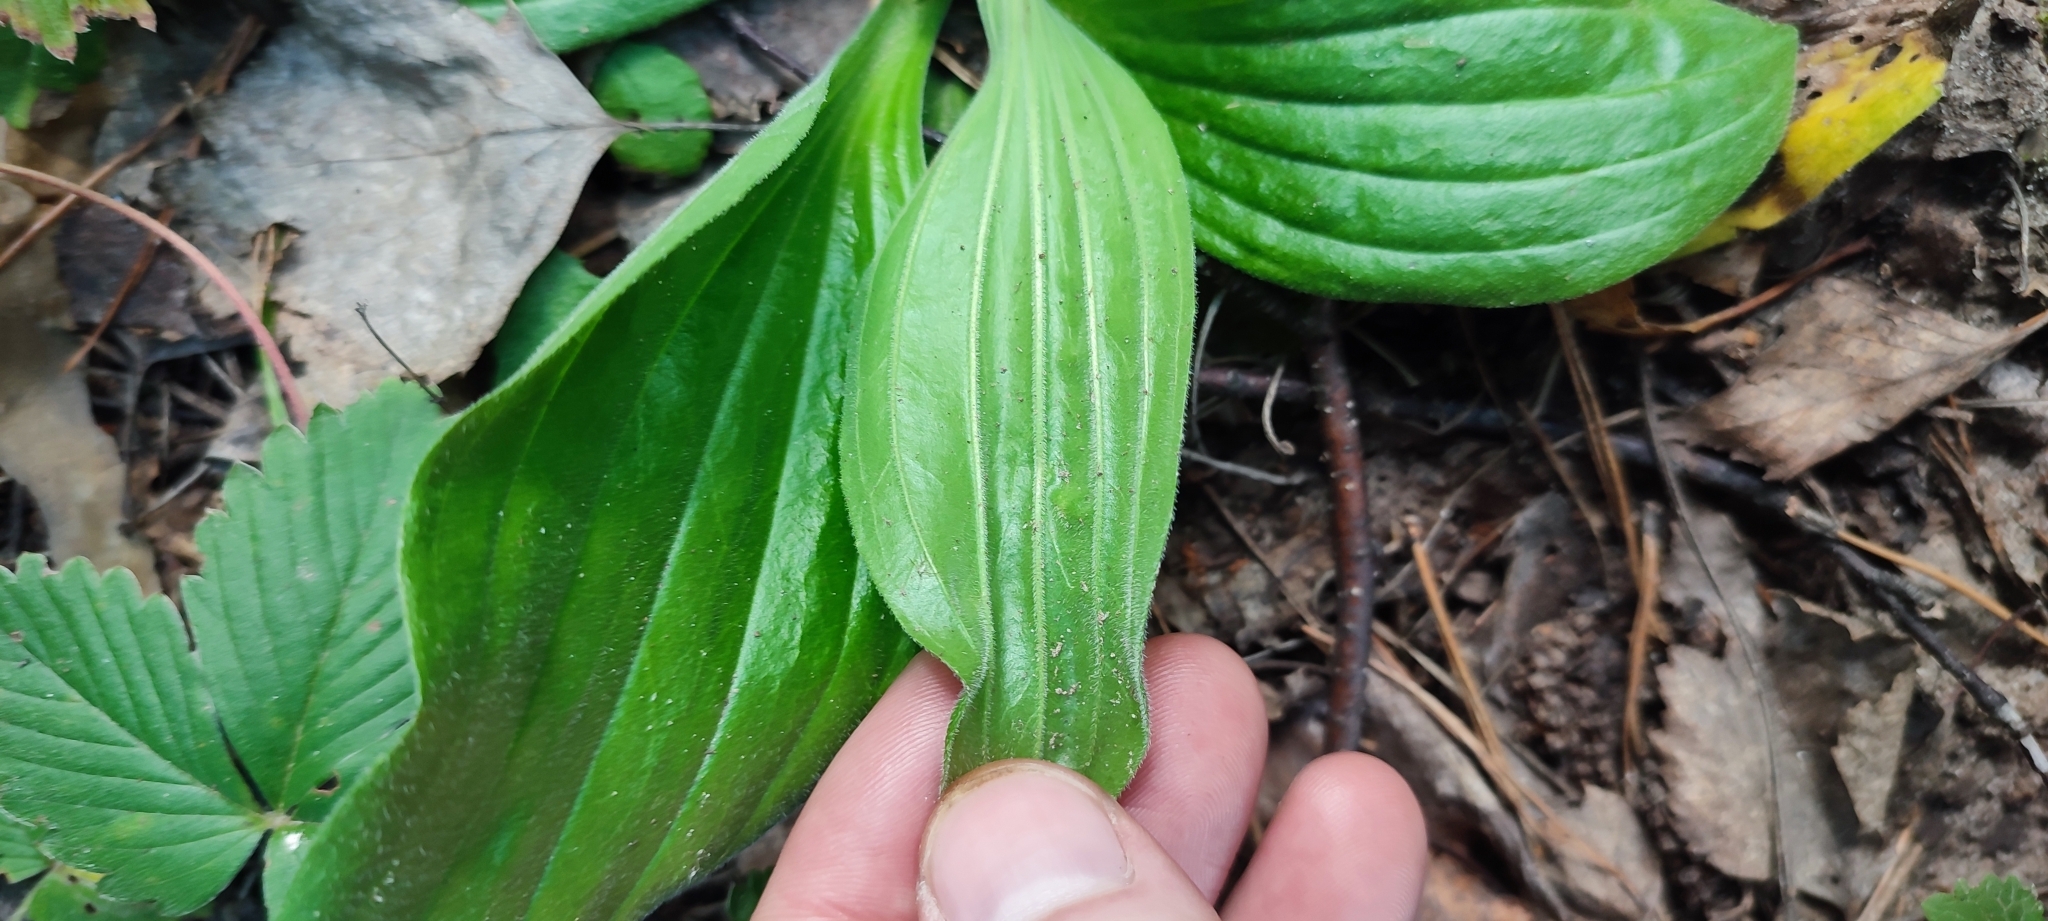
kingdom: Plantae
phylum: Tracheophyta
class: Magnoliopsida
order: Lamiales
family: Plantaginaceae
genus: Plantago
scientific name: Plantago media
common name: Hoary plantain
